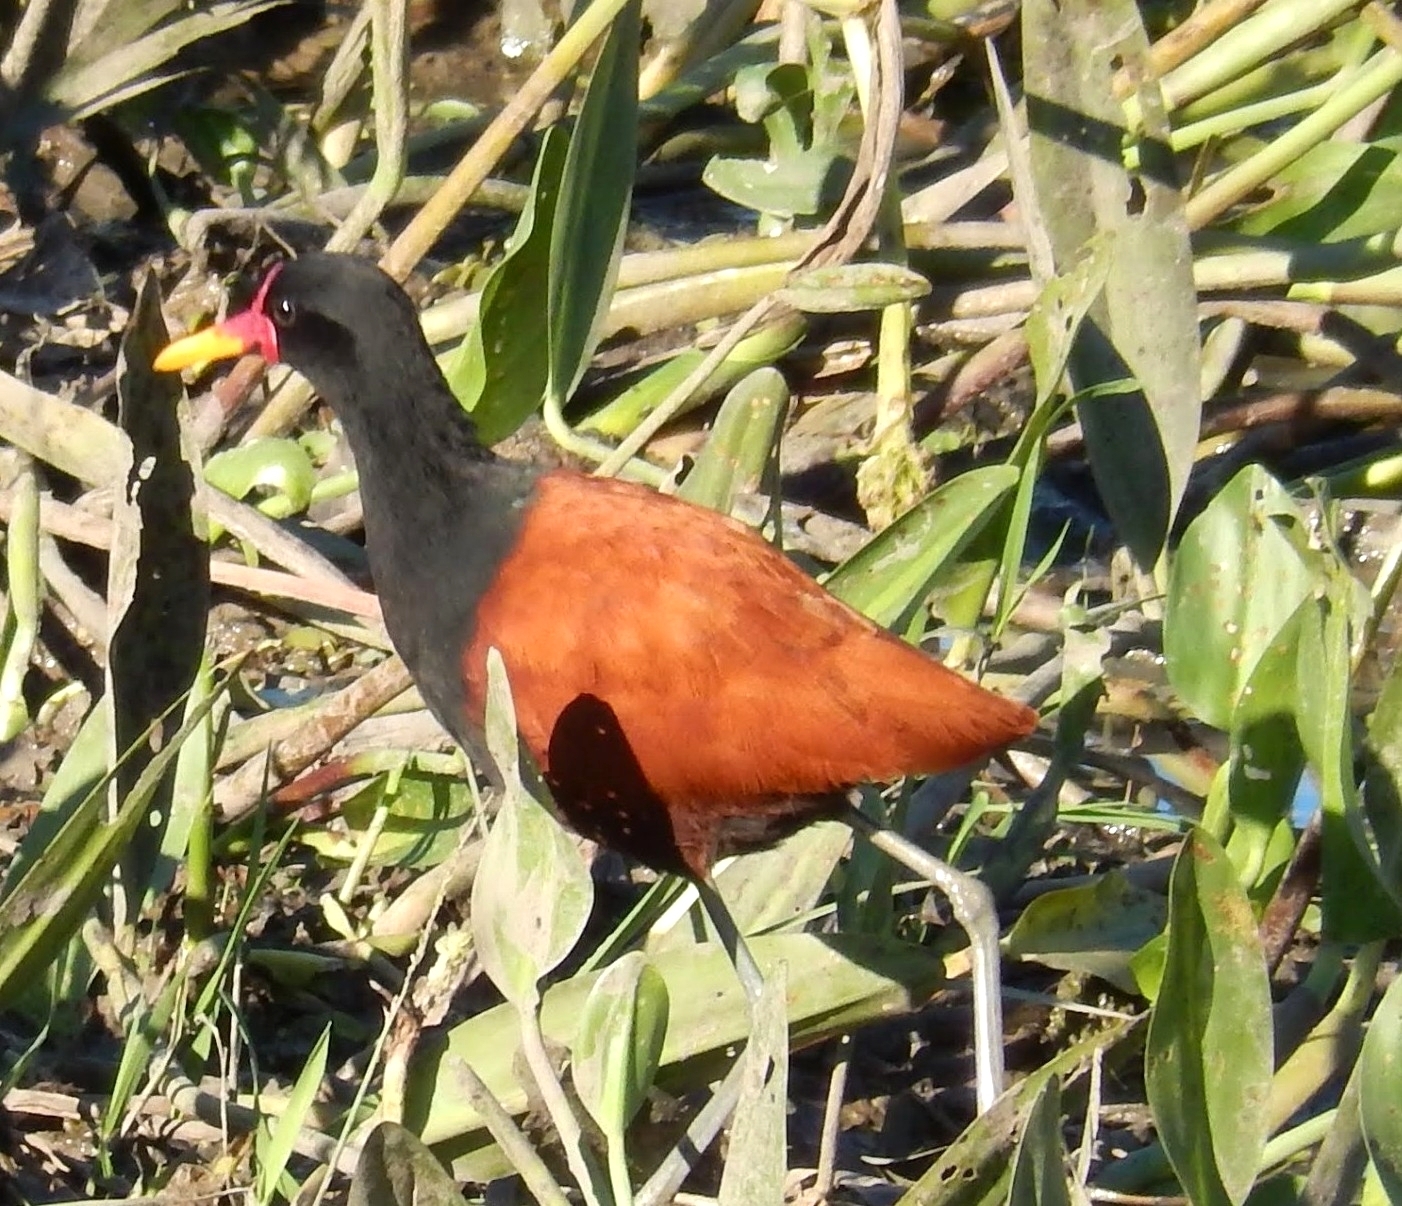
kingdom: Animalia
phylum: Chordata
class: Aves
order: Charadriiformes
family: Jacanidae
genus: Jacana
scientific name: Jacana jacana
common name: Wattled jacana
